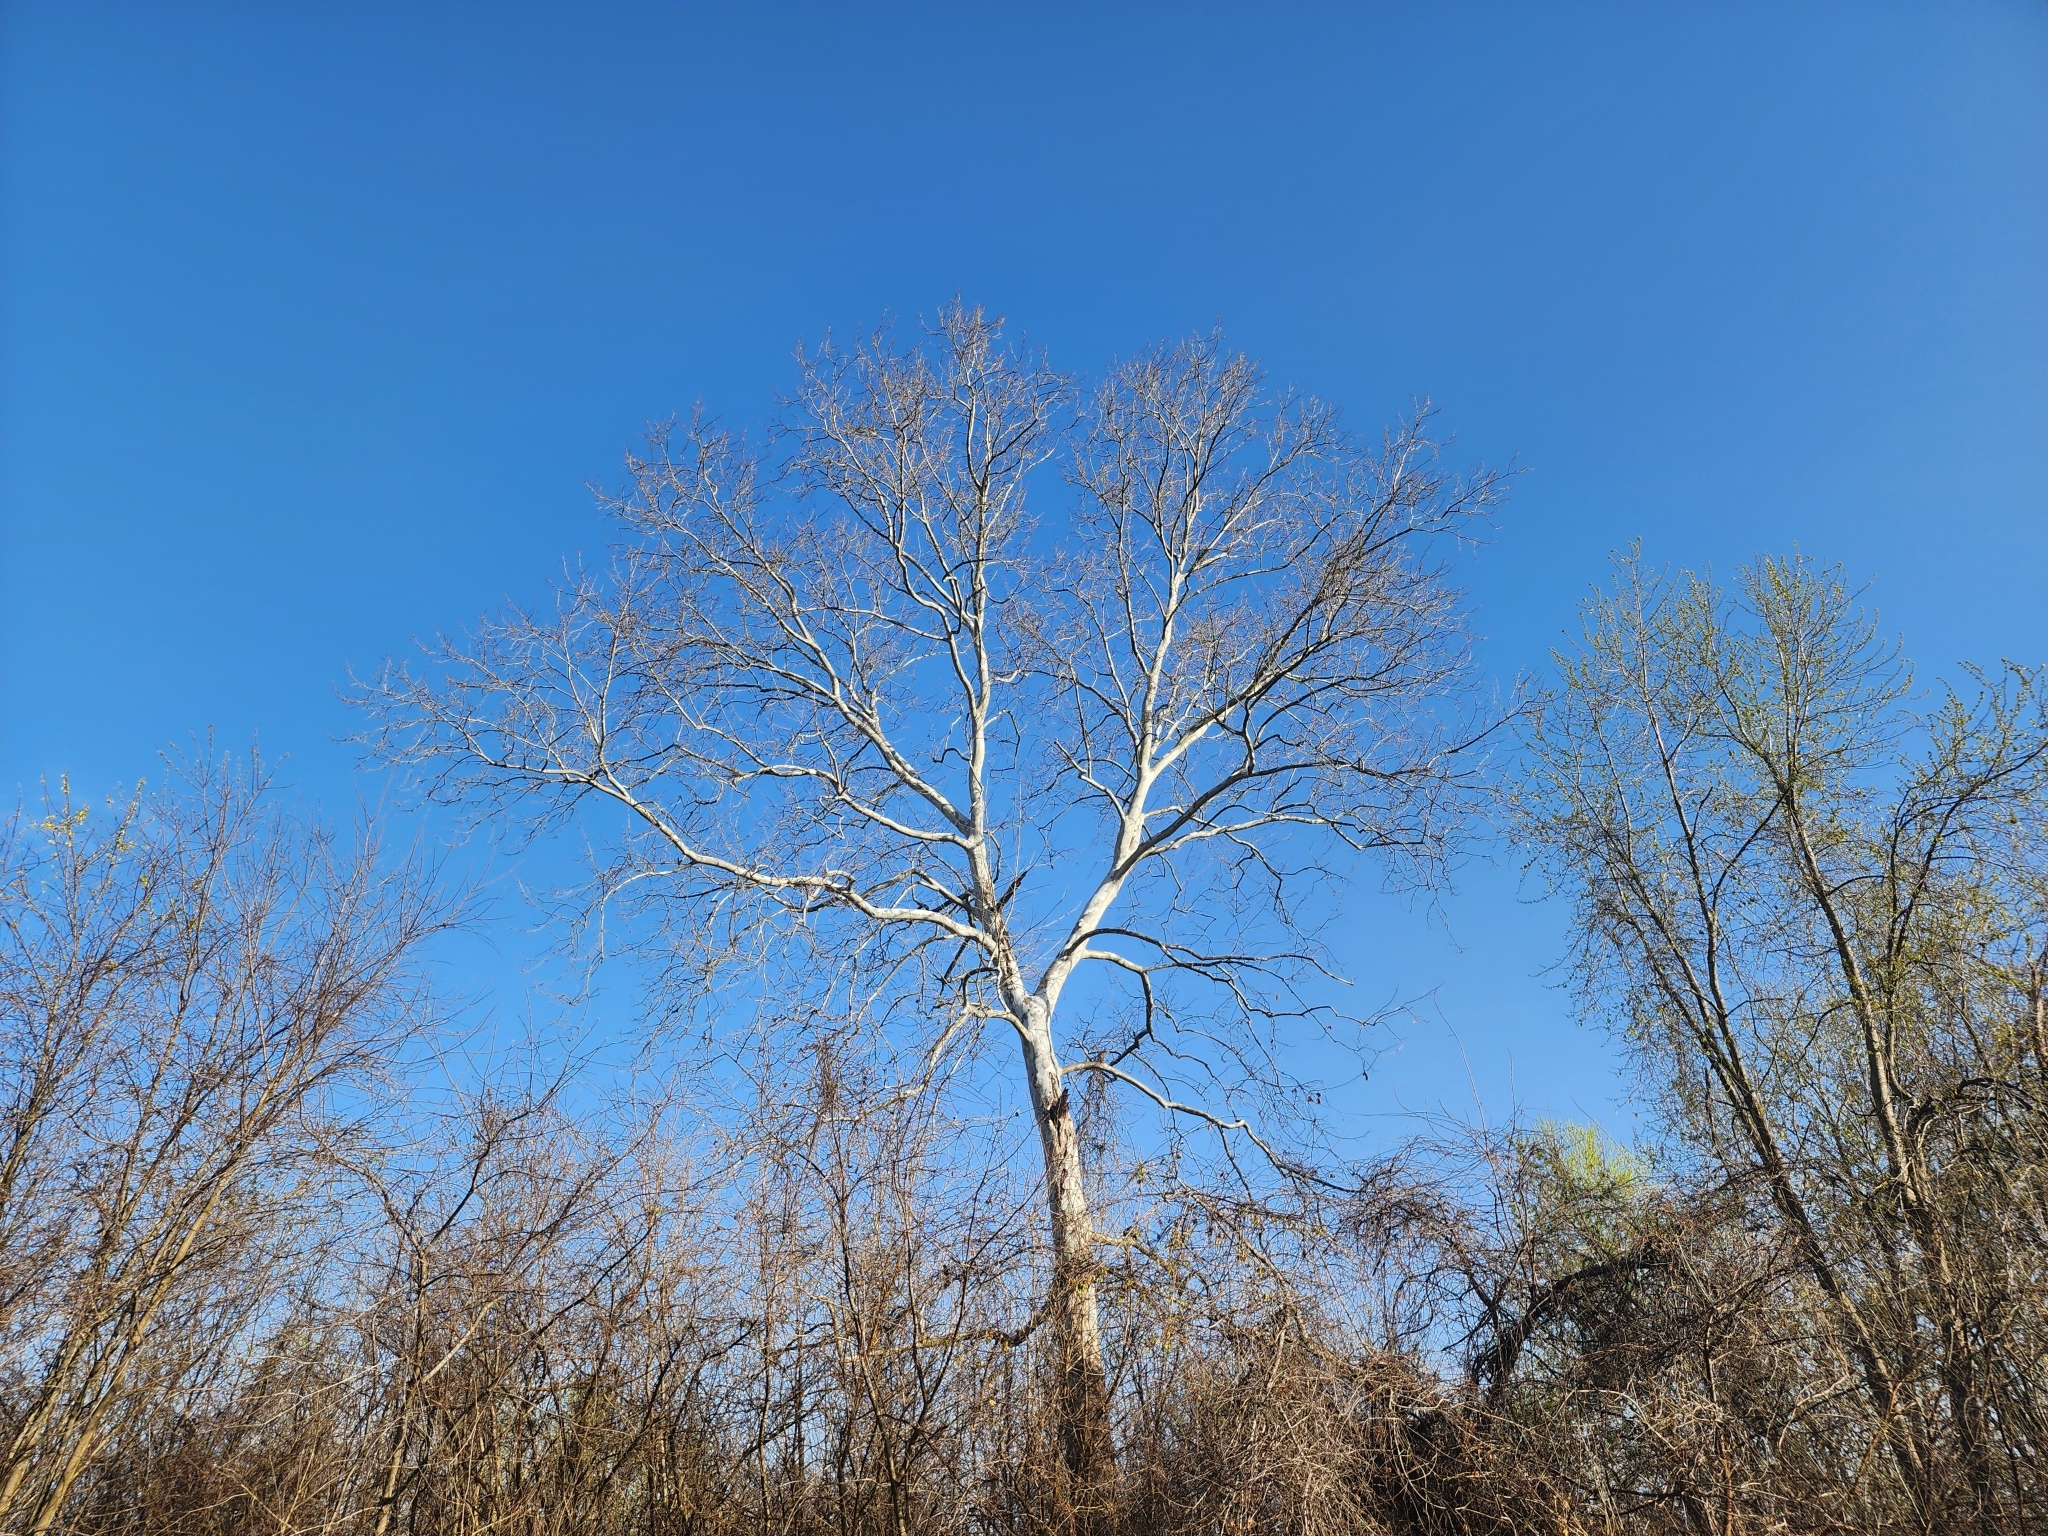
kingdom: Plantae
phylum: Tracheophyta
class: Magnoliopsida
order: Proteales
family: Platanaceae
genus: Platanus
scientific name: Platanus occidentalis
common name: American sycamore
